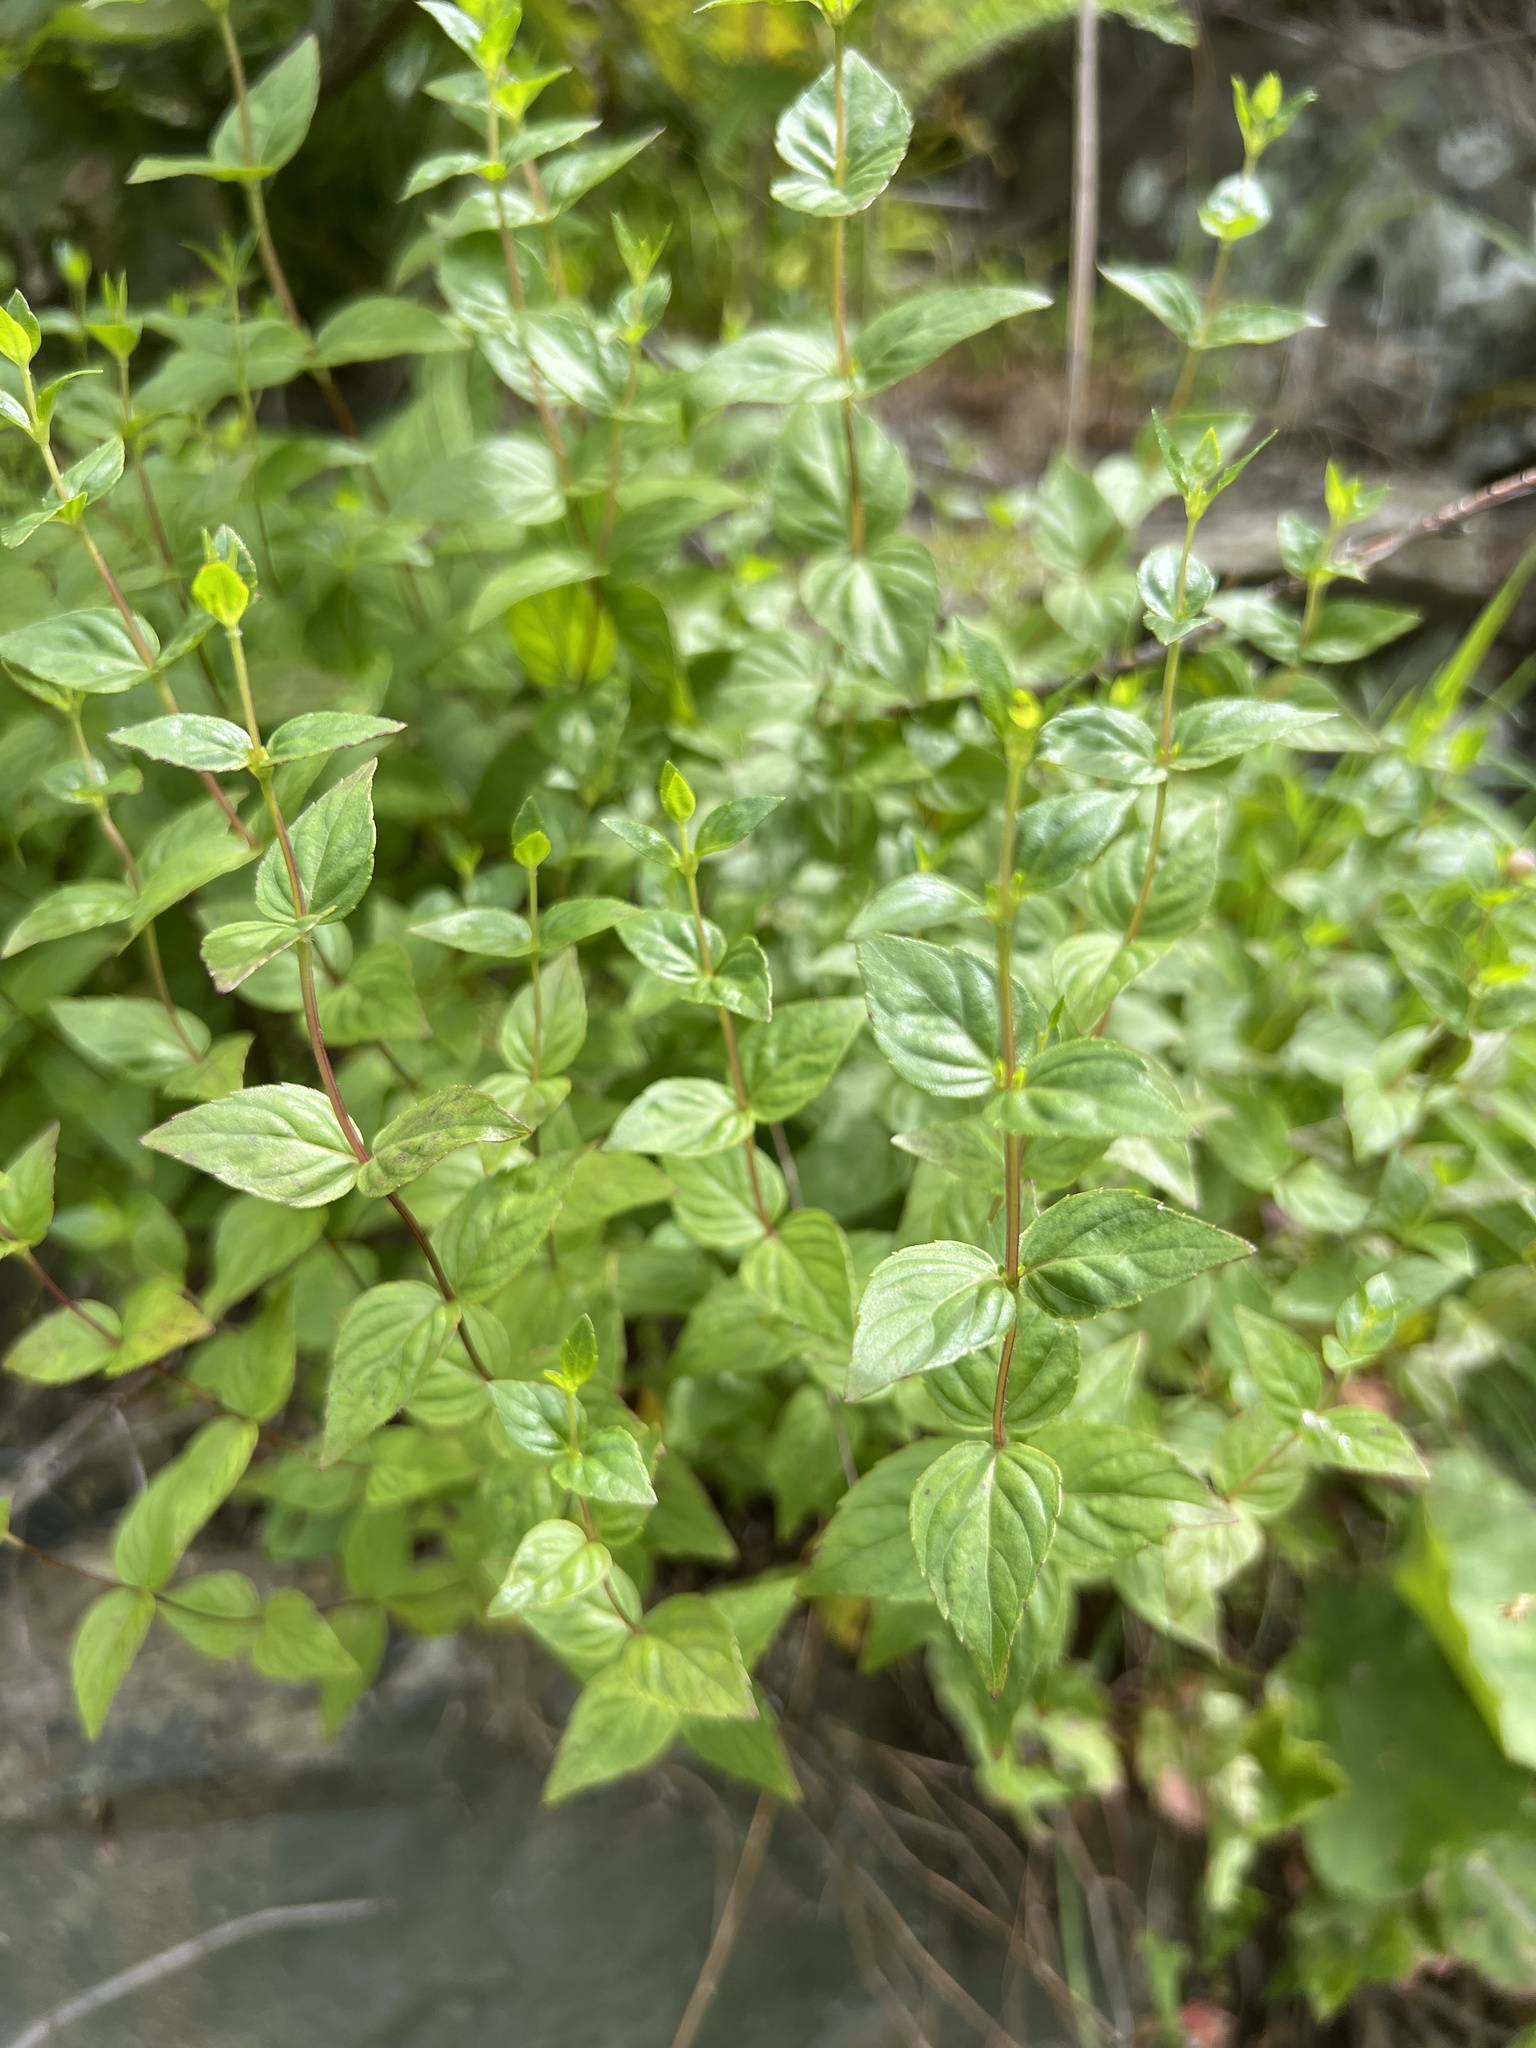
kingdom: Plantae
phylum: Tracheophyta
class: Magnoliopsida
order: Lamiales
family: Lamiaceae
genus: Cunila
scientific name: Cunila origanoides
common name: American dittany
